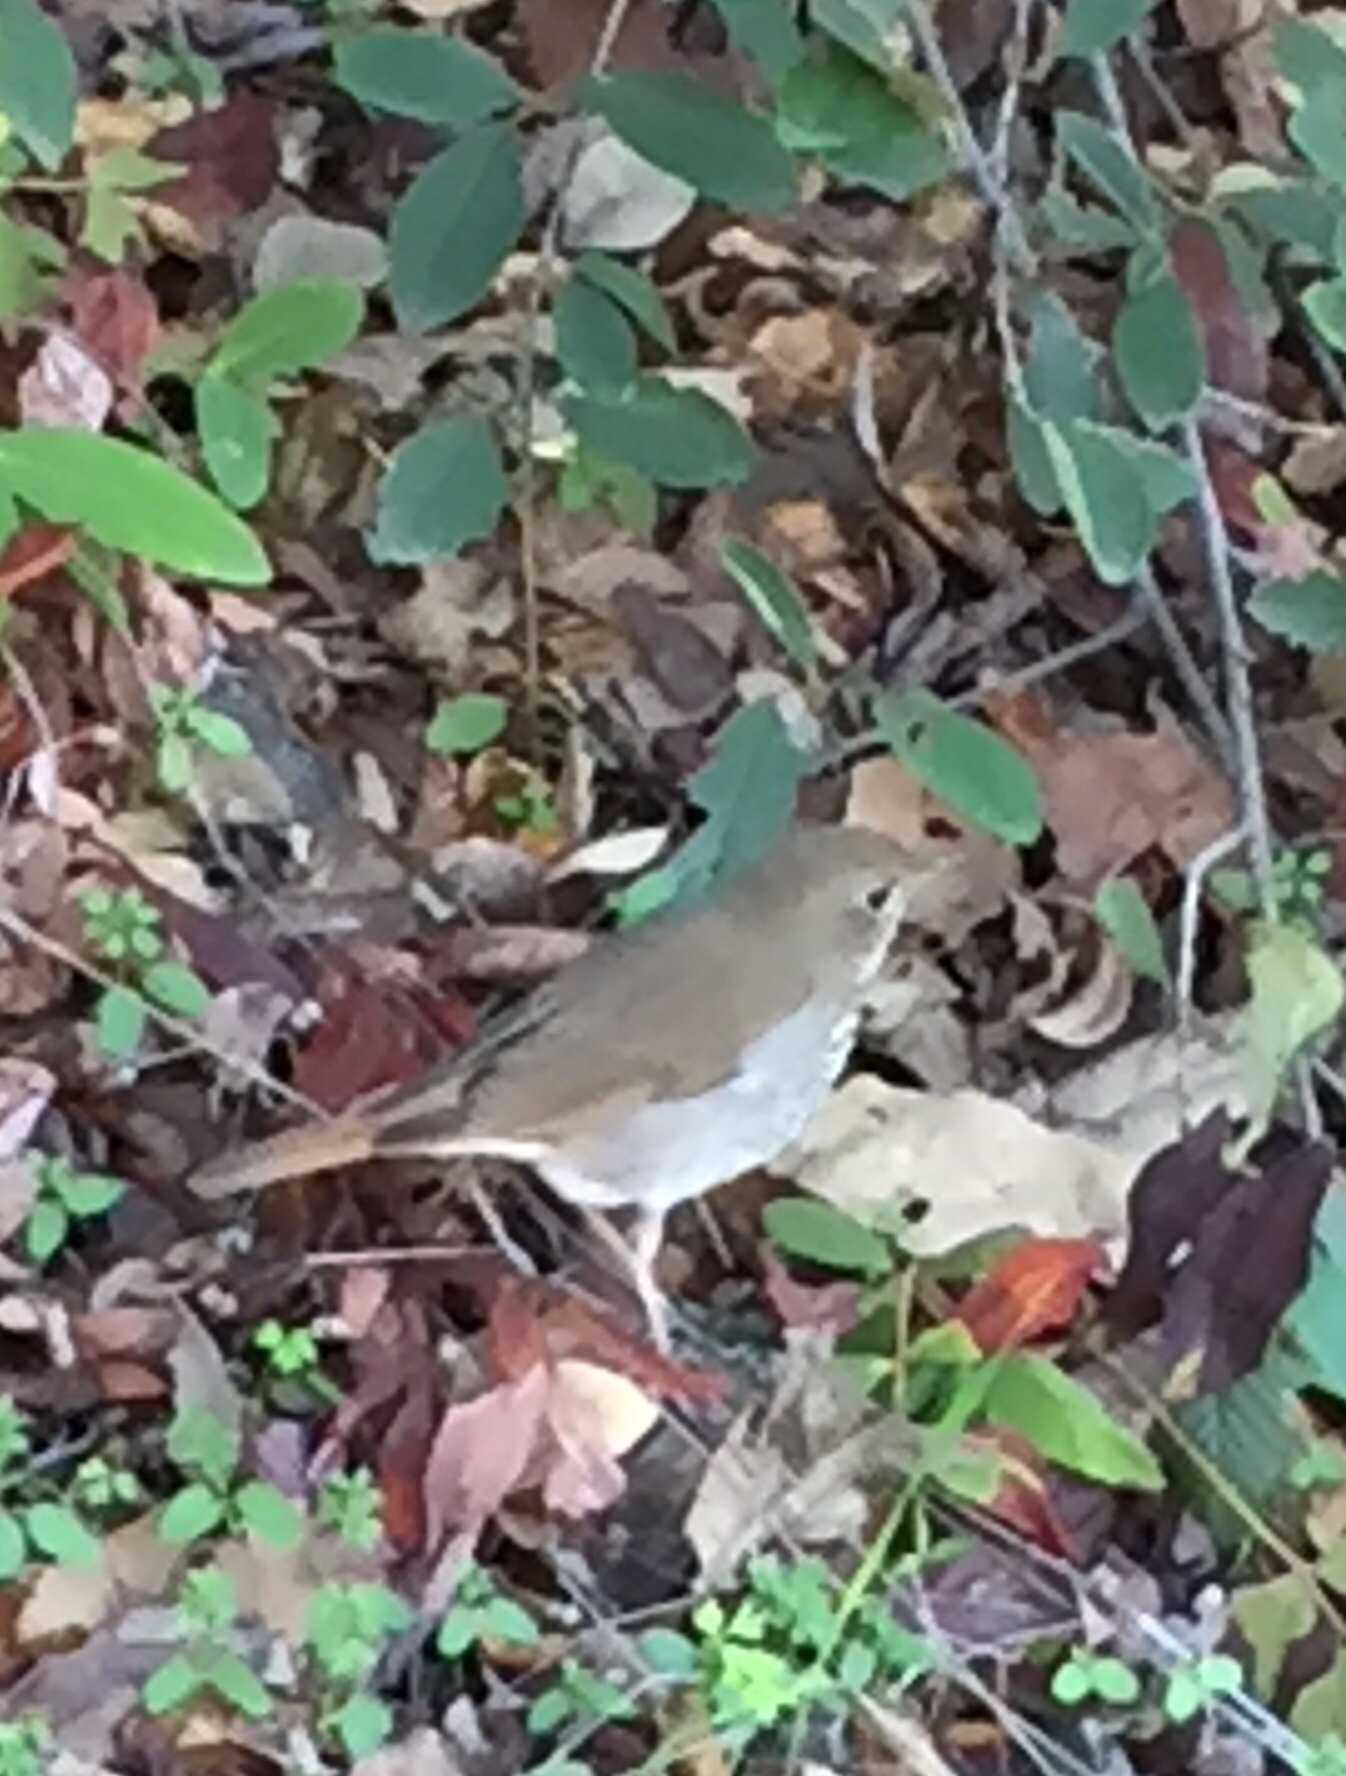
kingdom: Animalia
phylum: Chordata
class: Aves
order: Passeriformes
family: Turdidae
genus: Catharus
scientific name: Catharus guttatus
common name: Hermit thrush
